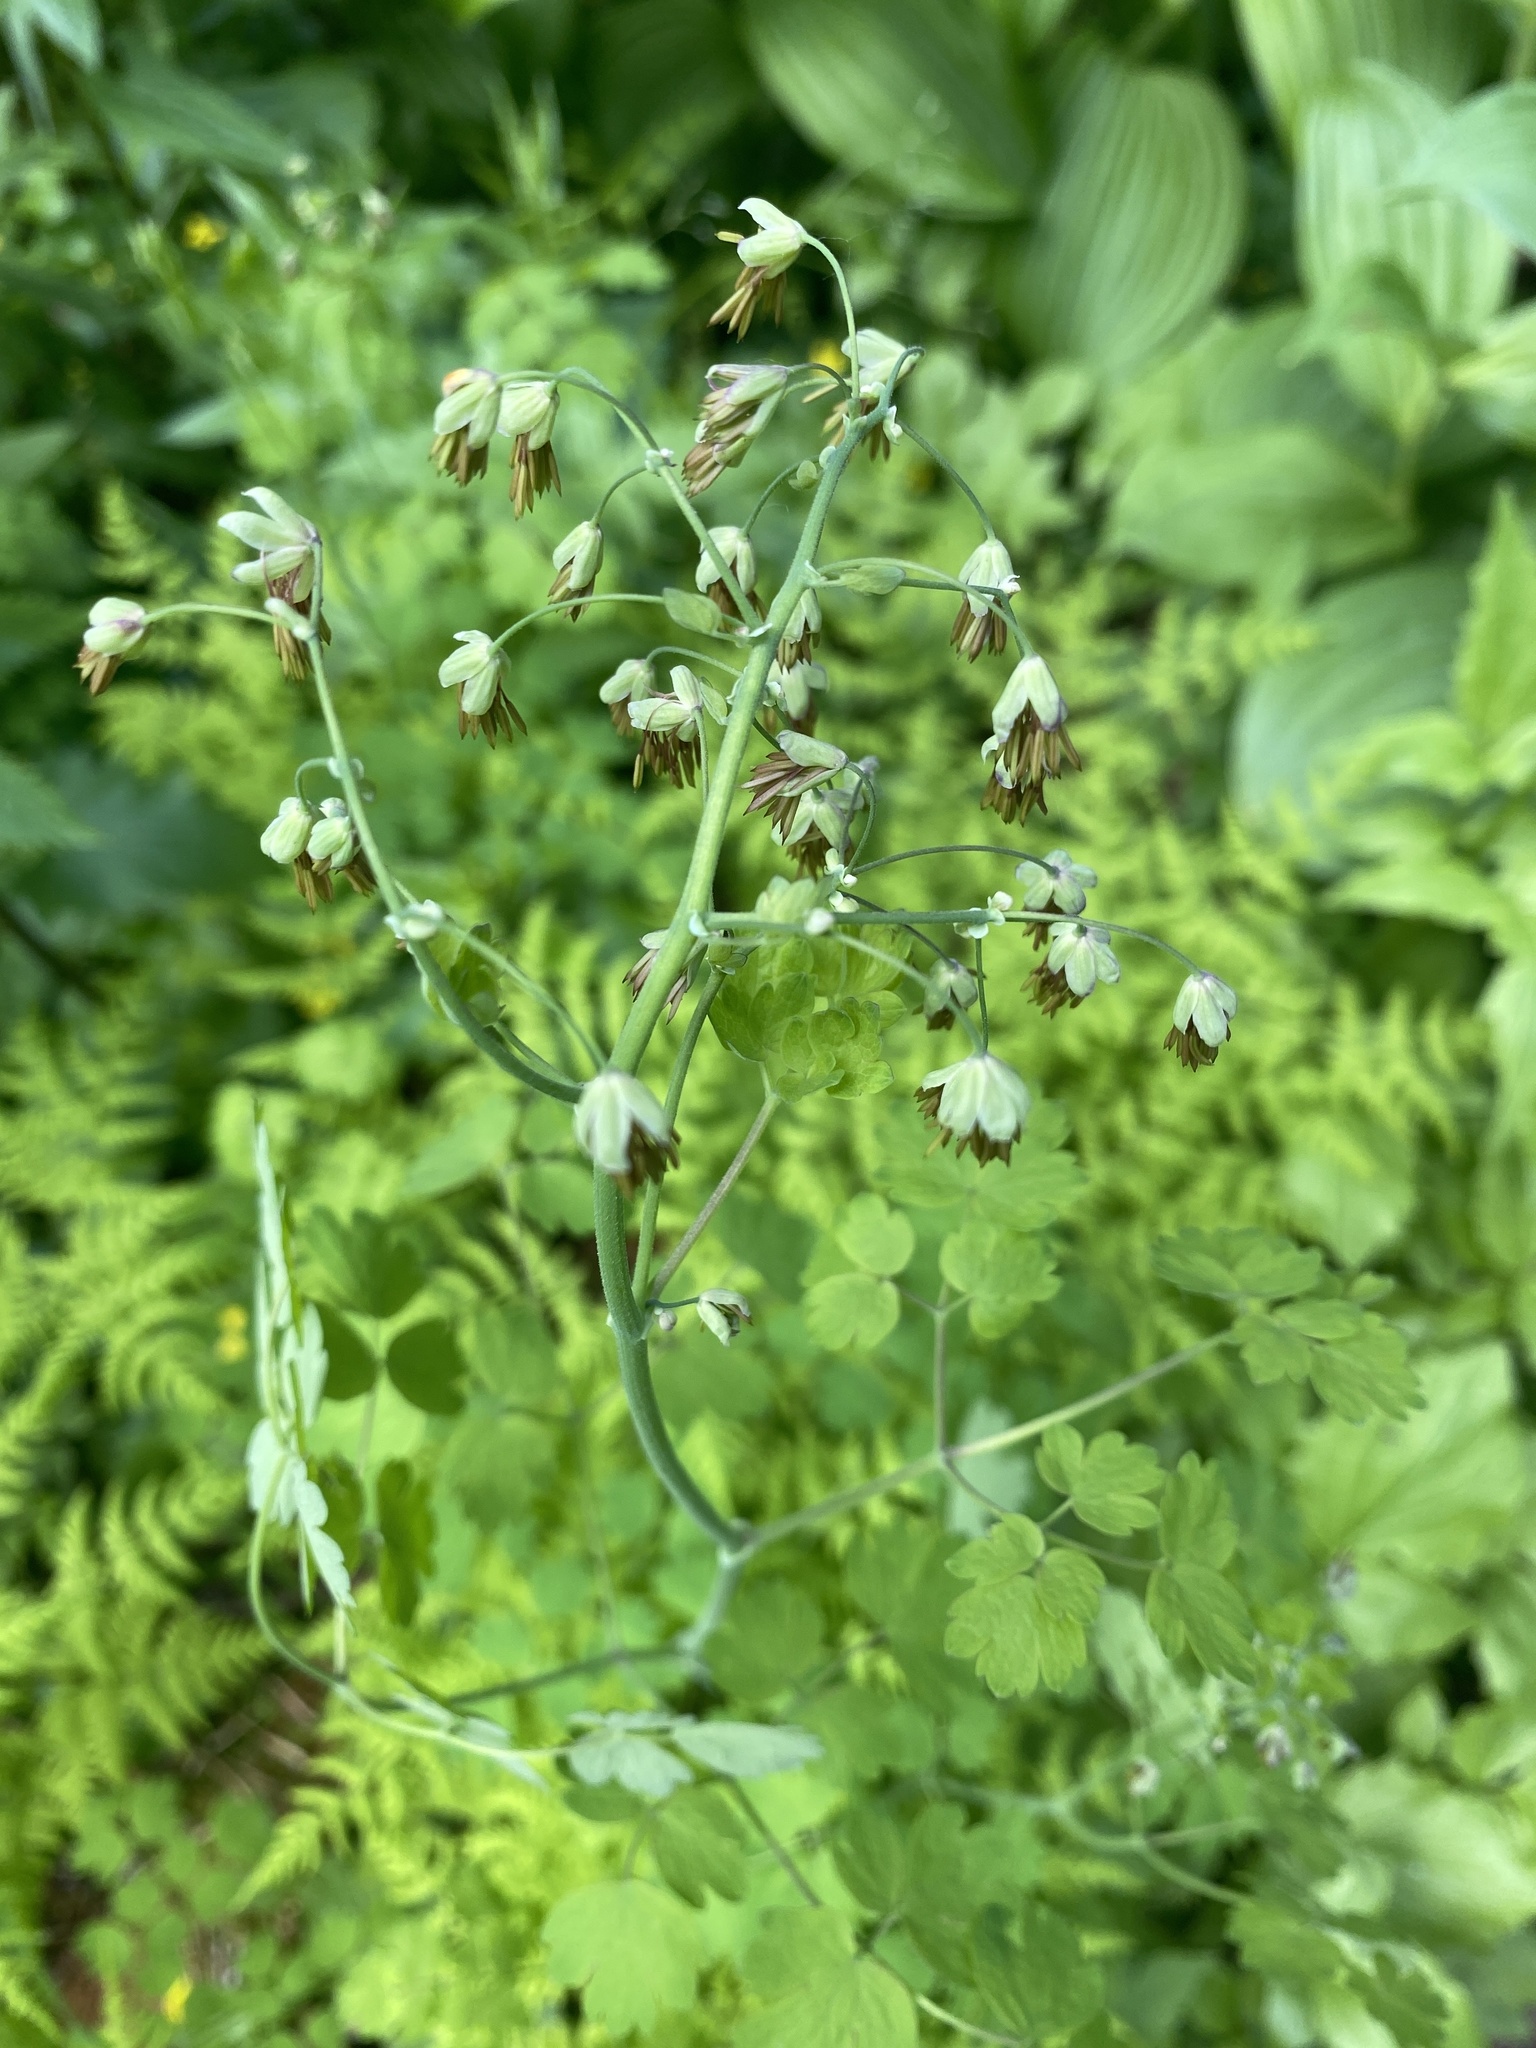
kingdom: Plantae
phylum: Tracheophyta
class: Magnoliopsida
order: Ranunculales
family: Ranunculaceae
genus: Thalictrum
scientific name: Thalictrum occidentale
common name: Western meadow-rue
